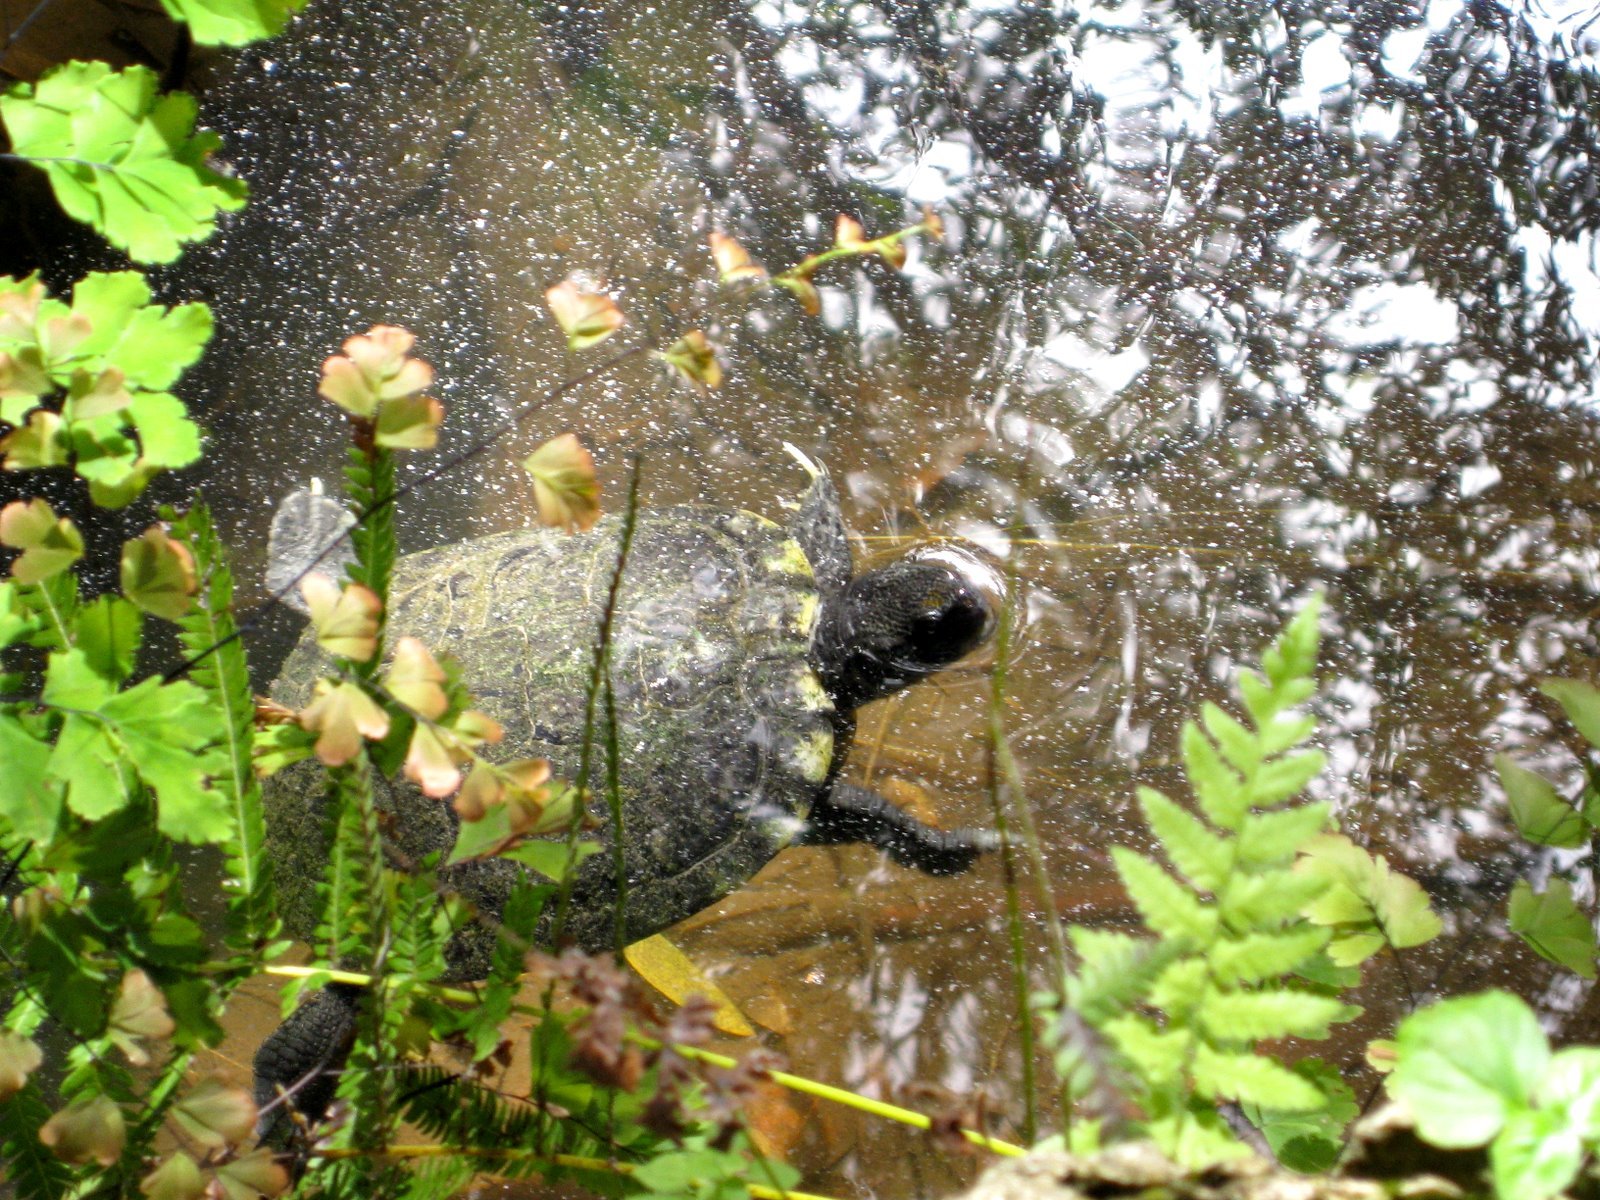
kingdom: Animalia
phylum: Chordata
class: Testudines
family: Emydidae
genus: Trachemys
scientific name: Trachemys scripta
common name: Slider
